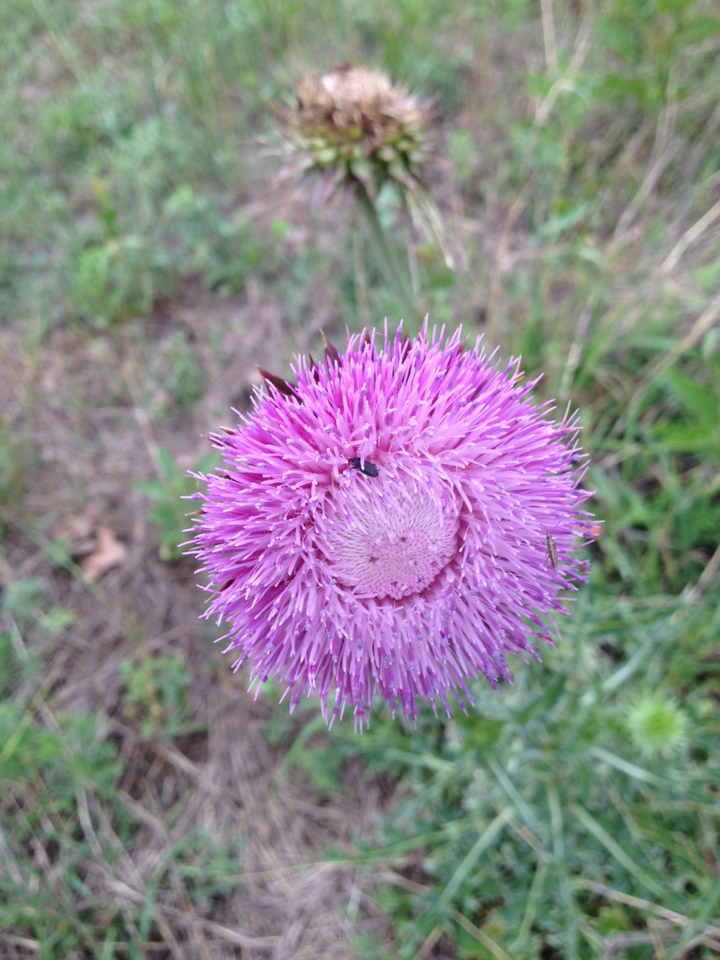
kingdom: Plantae
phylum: Tracheophyta
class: Magnoliopsida
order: Asterales
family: Asteraceae
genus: Carduus
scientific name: Carduus nutans
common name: Musk thistle
